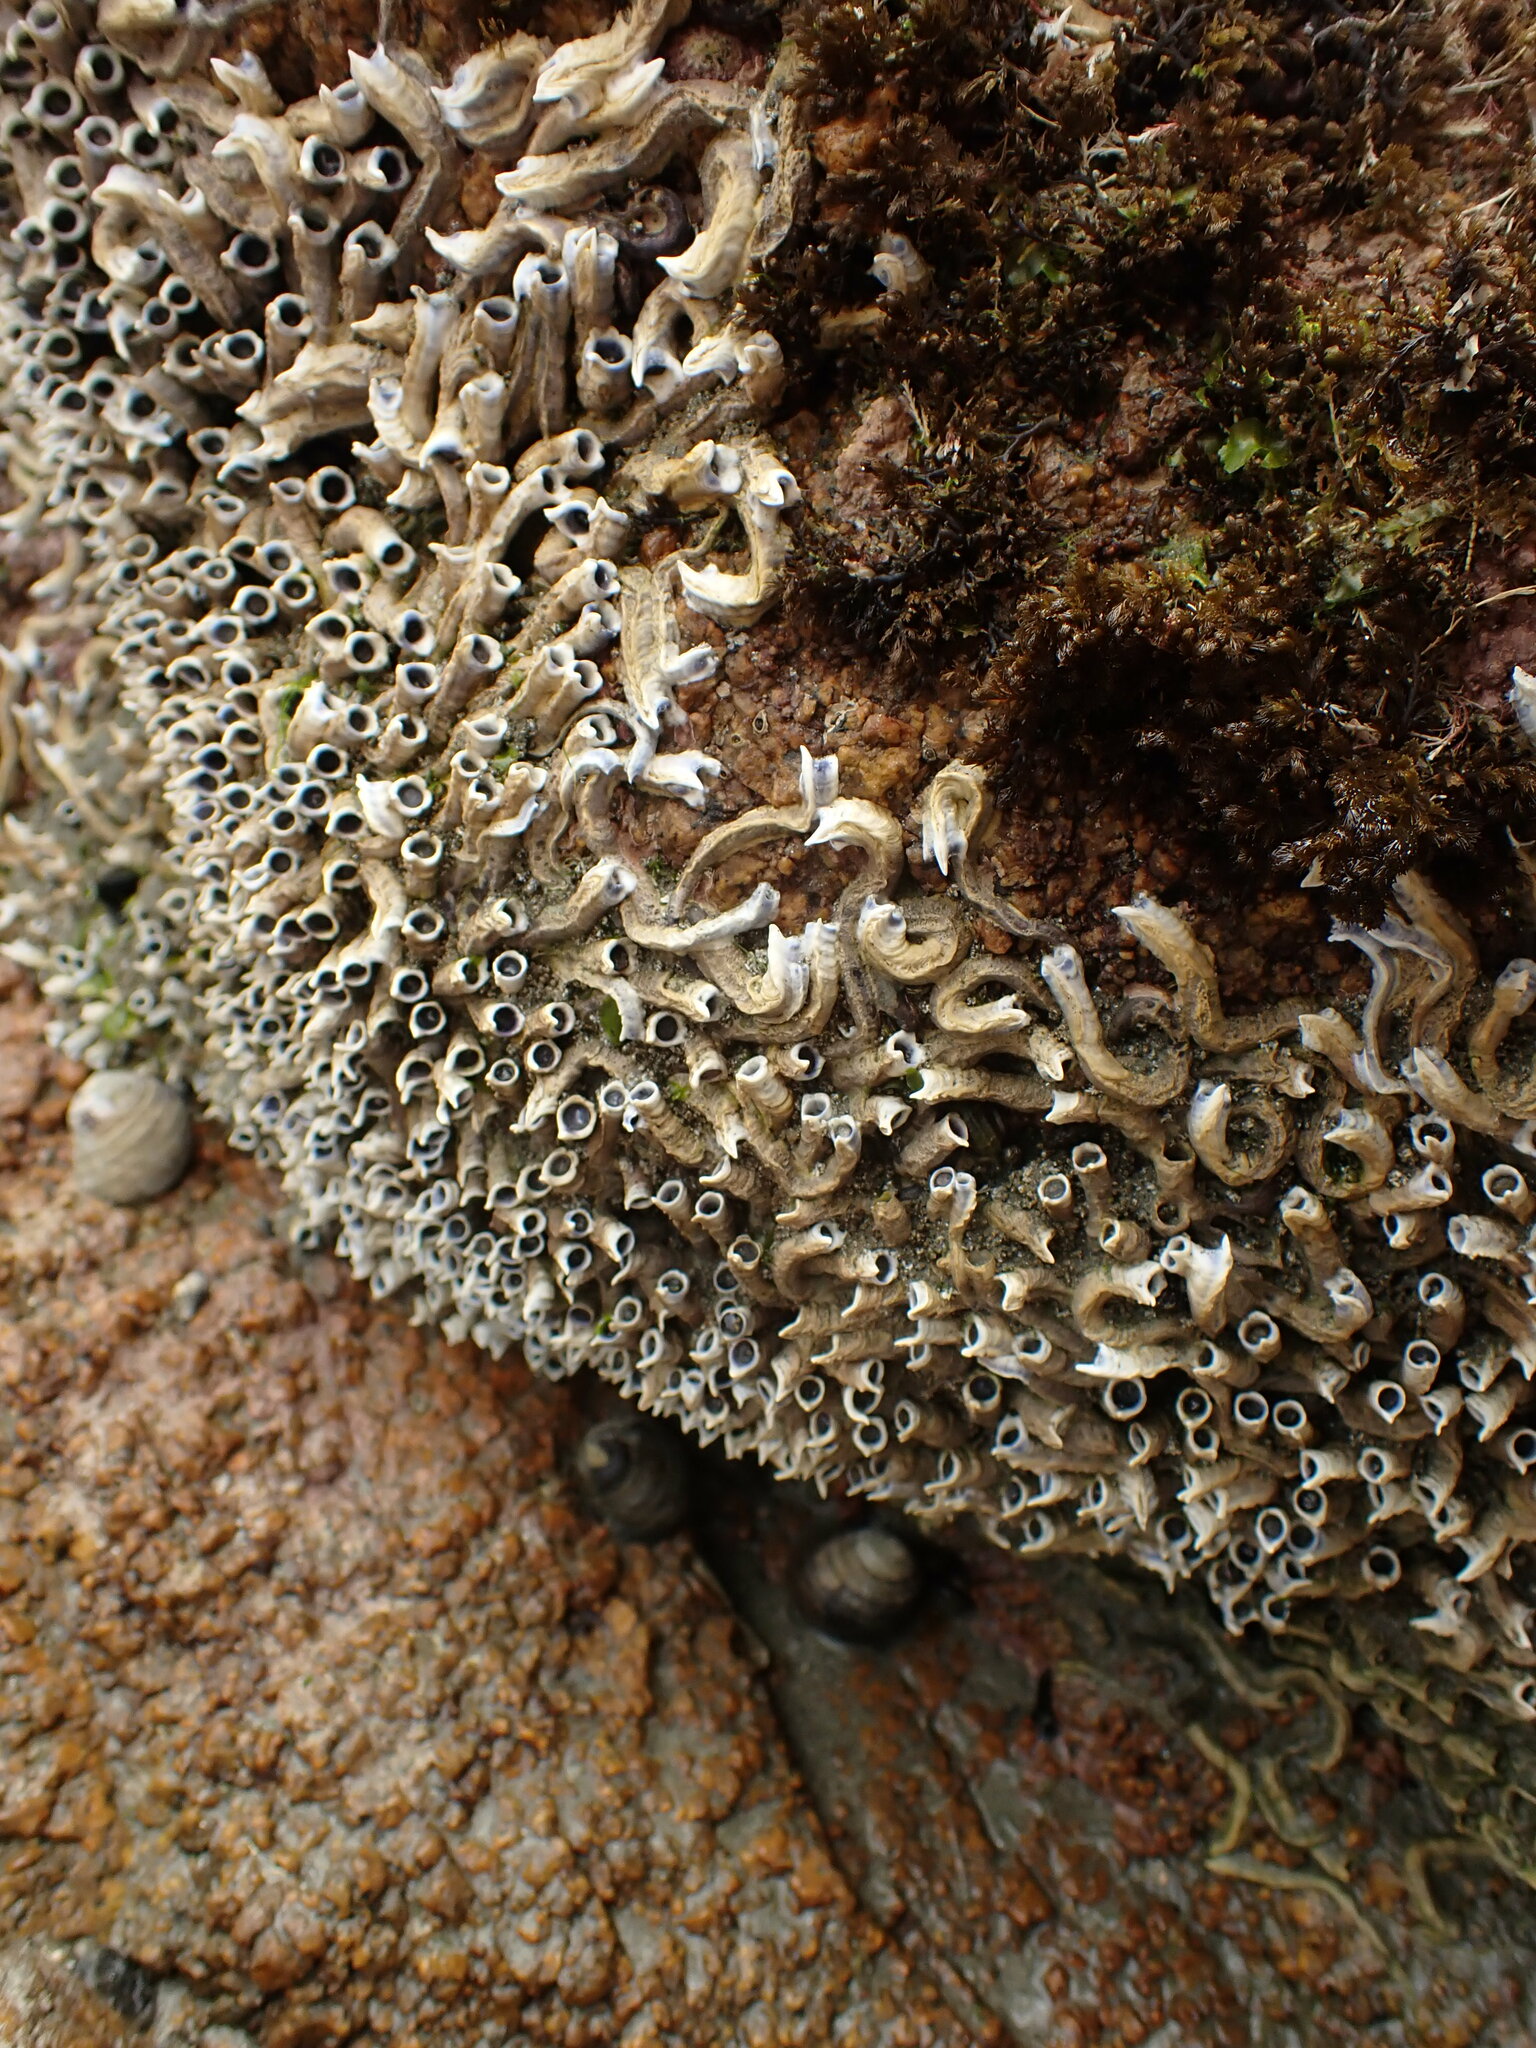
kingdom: Animalia
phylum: Annelida
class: Polychaeta
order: Sabellida
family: Serpulidae
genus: Spirobranchus
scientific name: Spirobranchus cariniferus
